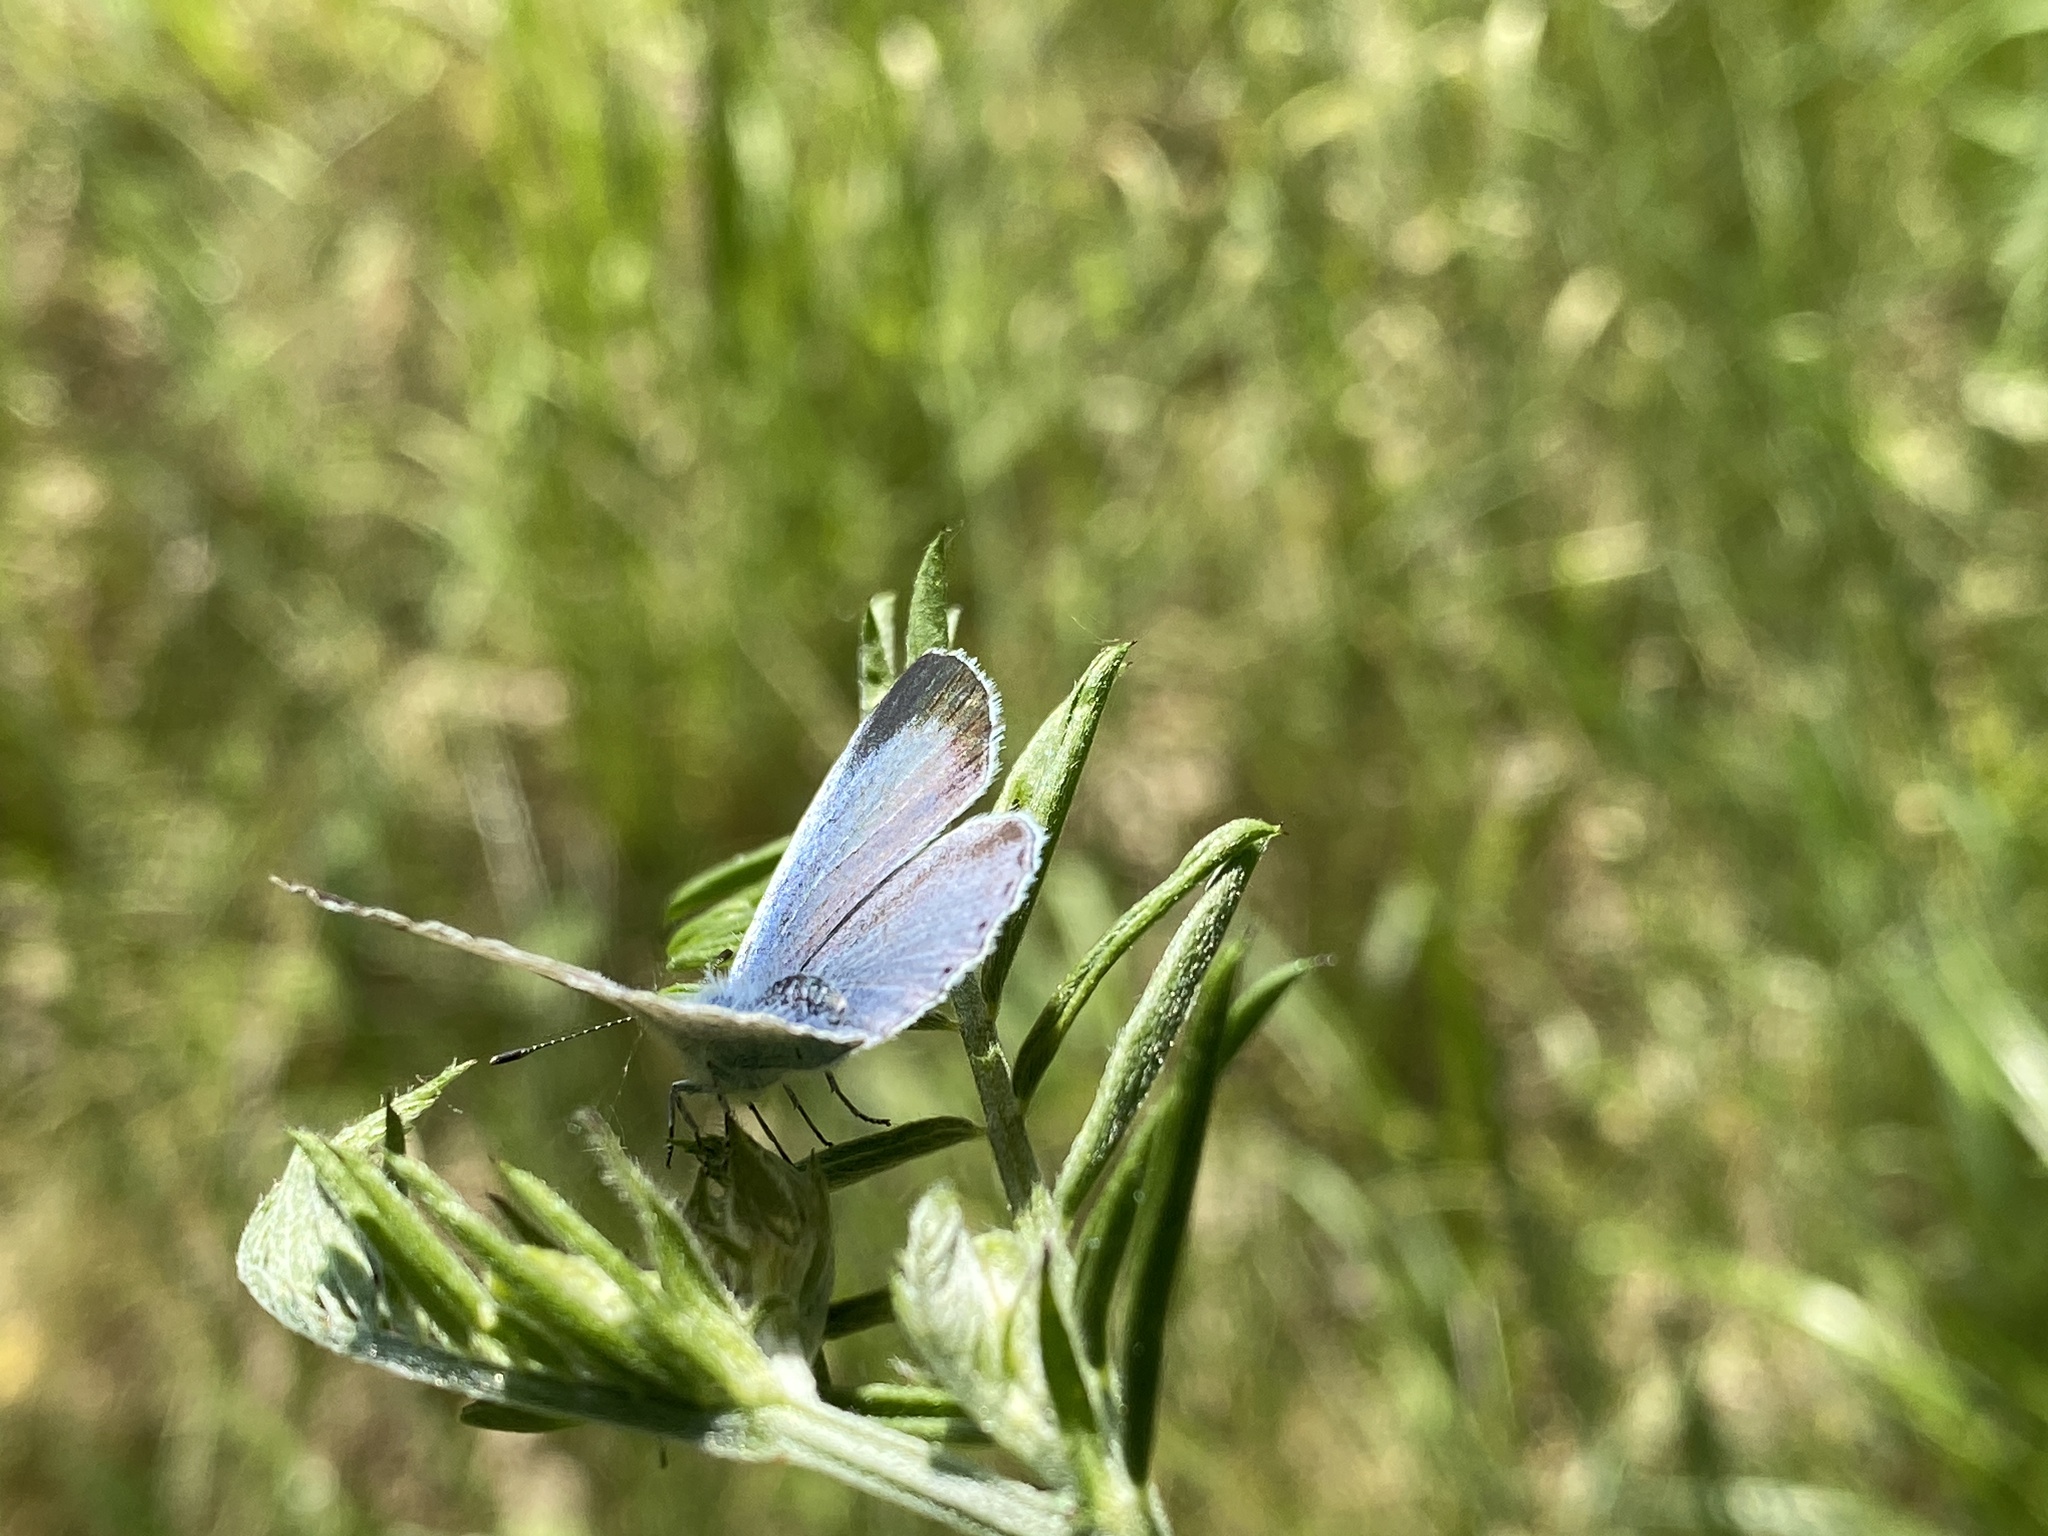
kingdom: Animalia
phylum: Arthropoda
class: Insecta
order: Lepidoptera
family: Lycaenidae
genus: Celastrina
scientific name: Celastrina argiolus
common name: Holly blue
